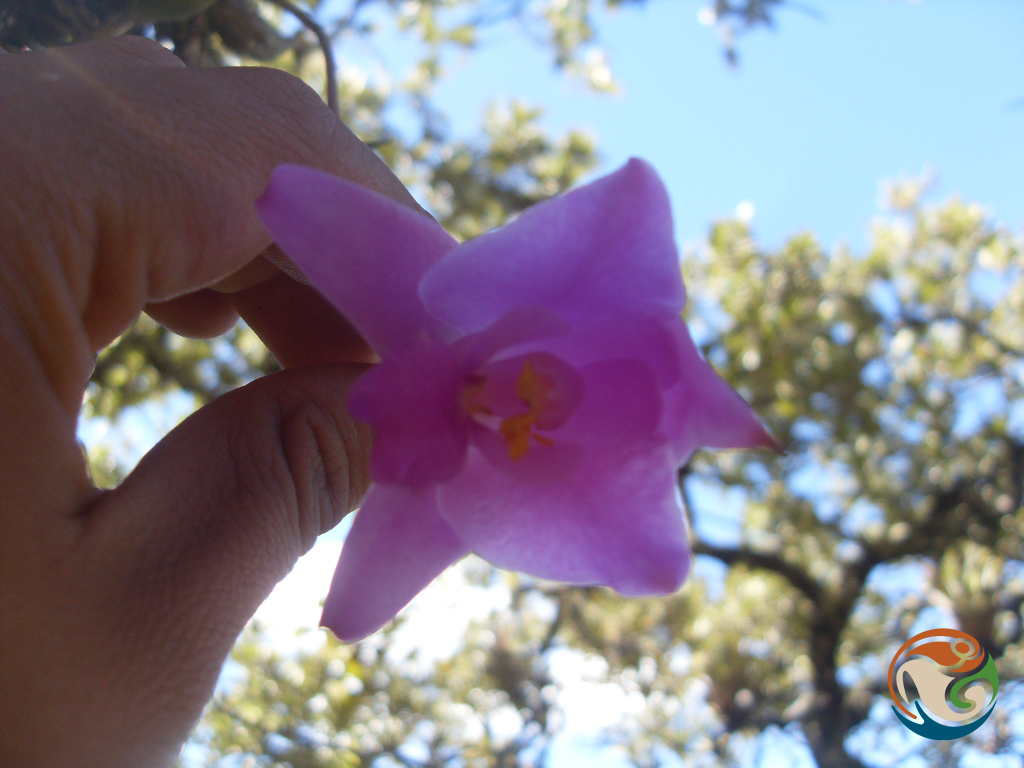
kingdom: Plantae
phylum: Tracheophyta
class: Liliopsida
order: Asparagales
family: Orchidaceae
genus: Laelia
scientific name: Laelia furfuracea
